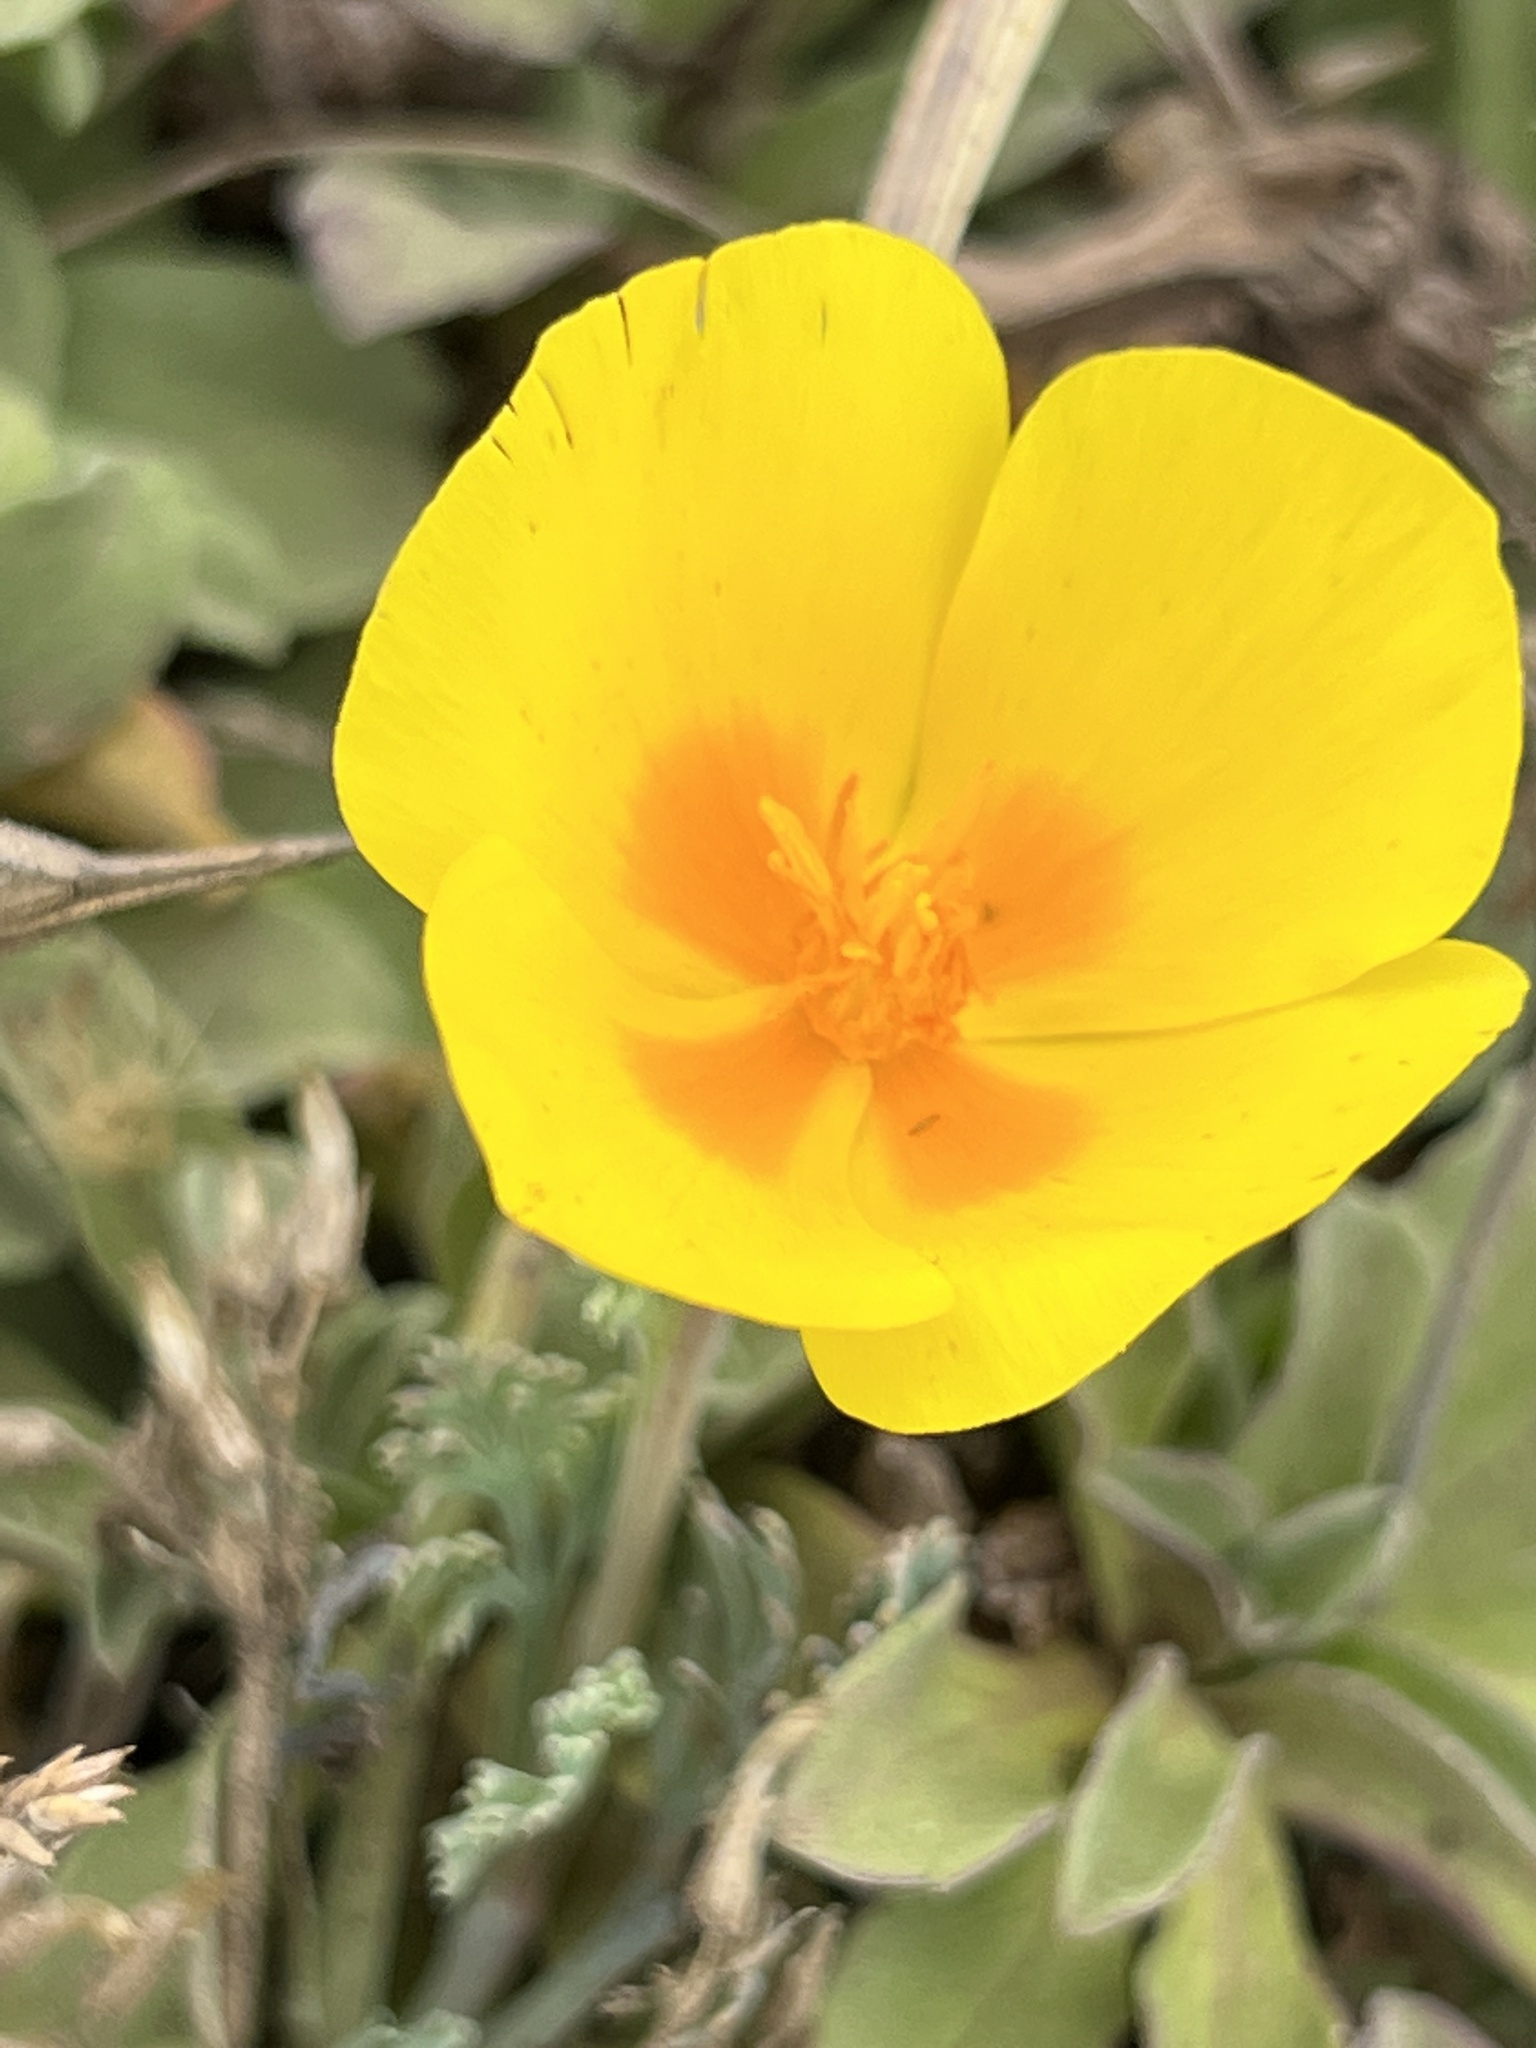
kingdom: Plantae
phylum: Tracheophyta
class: Magnoliopsida
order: Ranunculales
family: Papaveraceae
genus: Eschscholzia
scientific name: Eschscholzia californica
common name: California poppy
